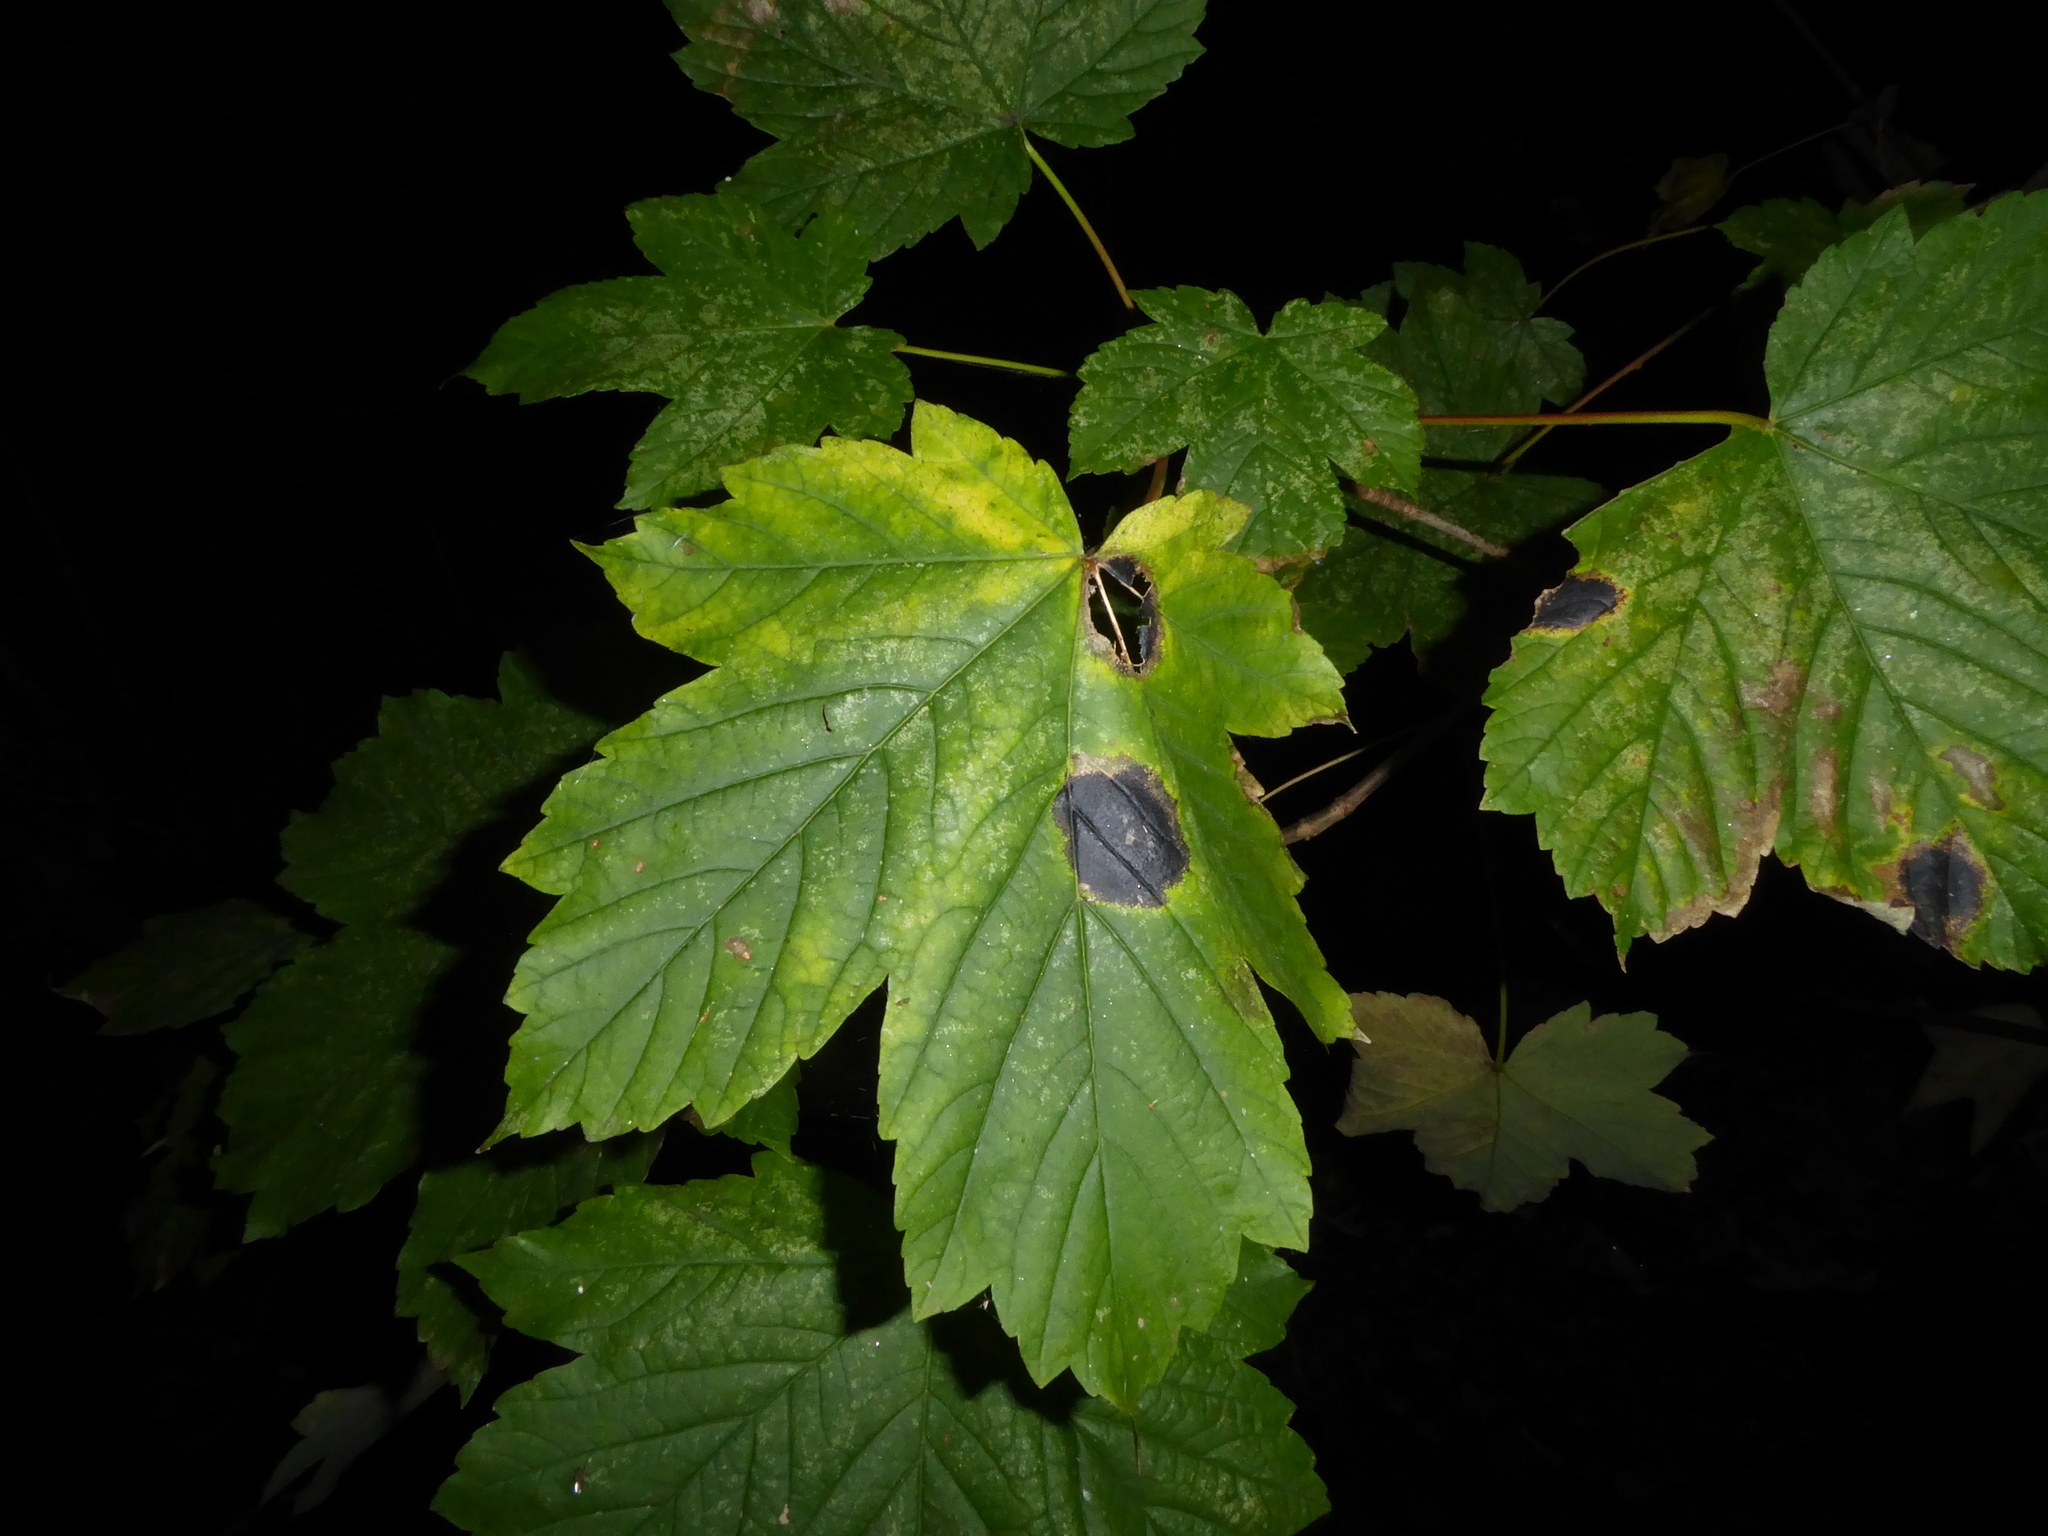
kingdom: Fungi
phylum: Ascomycota
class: Leotiomycetes
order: Rhytismatales
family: Rhytismataceae
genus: Rhytisma
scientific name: Rhytisma acerinum
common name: European tar spot
